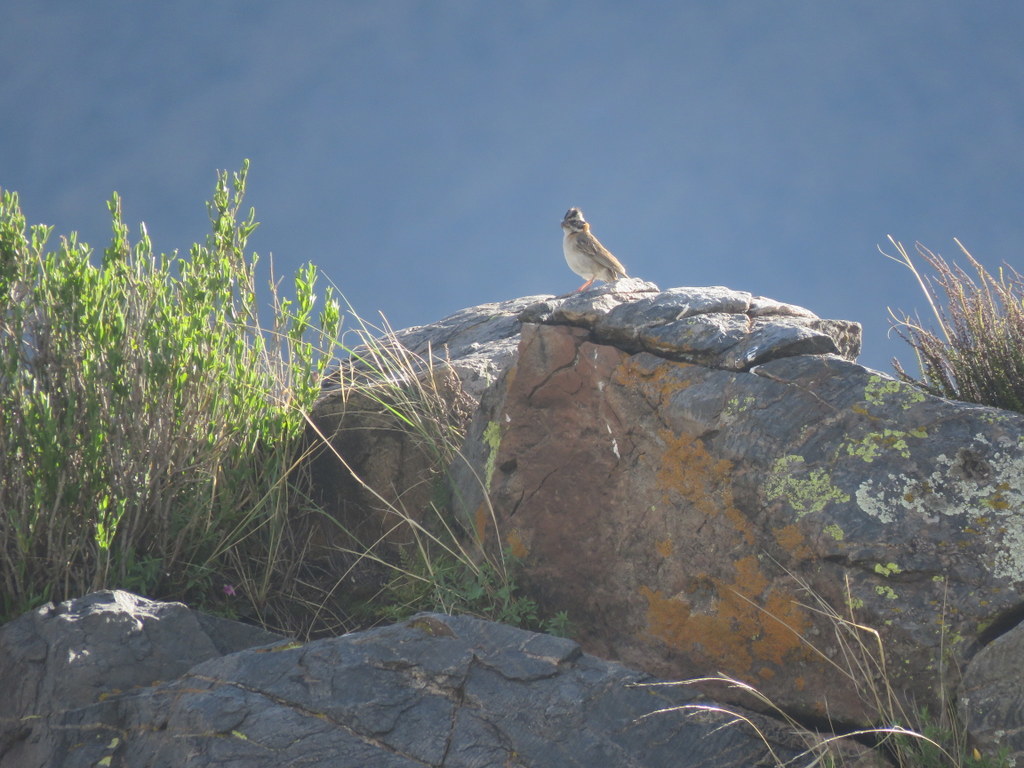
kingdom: Animalia
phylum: Chordata
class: Aves
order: Passeriformes
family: Passerellidae
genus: Zonotrichia
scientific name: Zonotrichia capensis
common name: Rufous-collared sparrow
